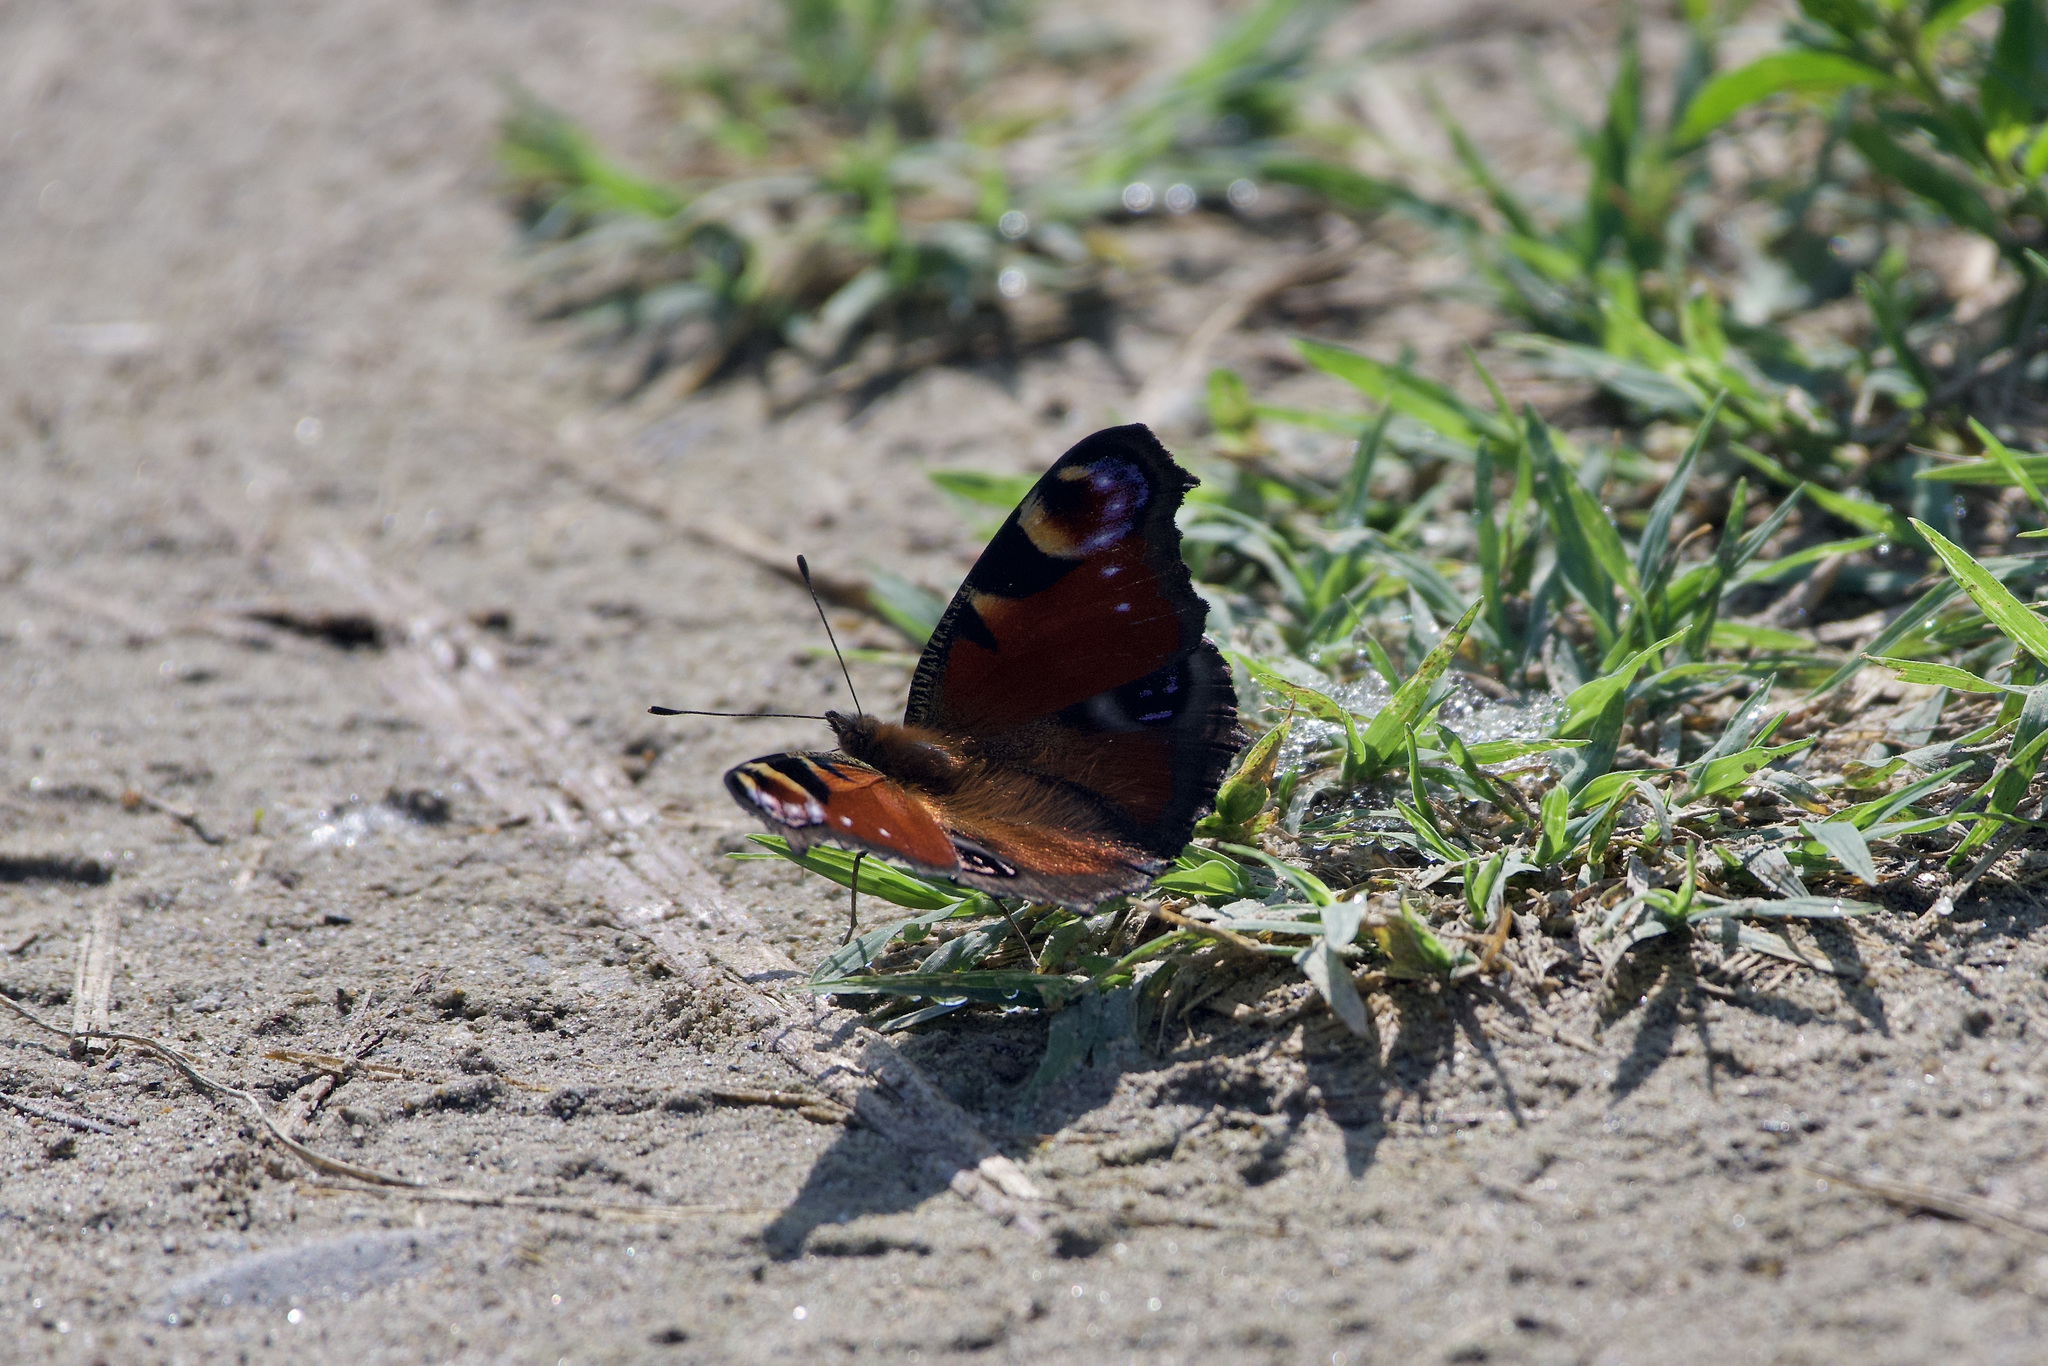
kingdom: Animalia
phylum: Arthropoda
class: Insecta
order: Lepidoptera
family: Nymphalidae
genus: Aglais
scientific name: Aglais io
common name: Peacock
